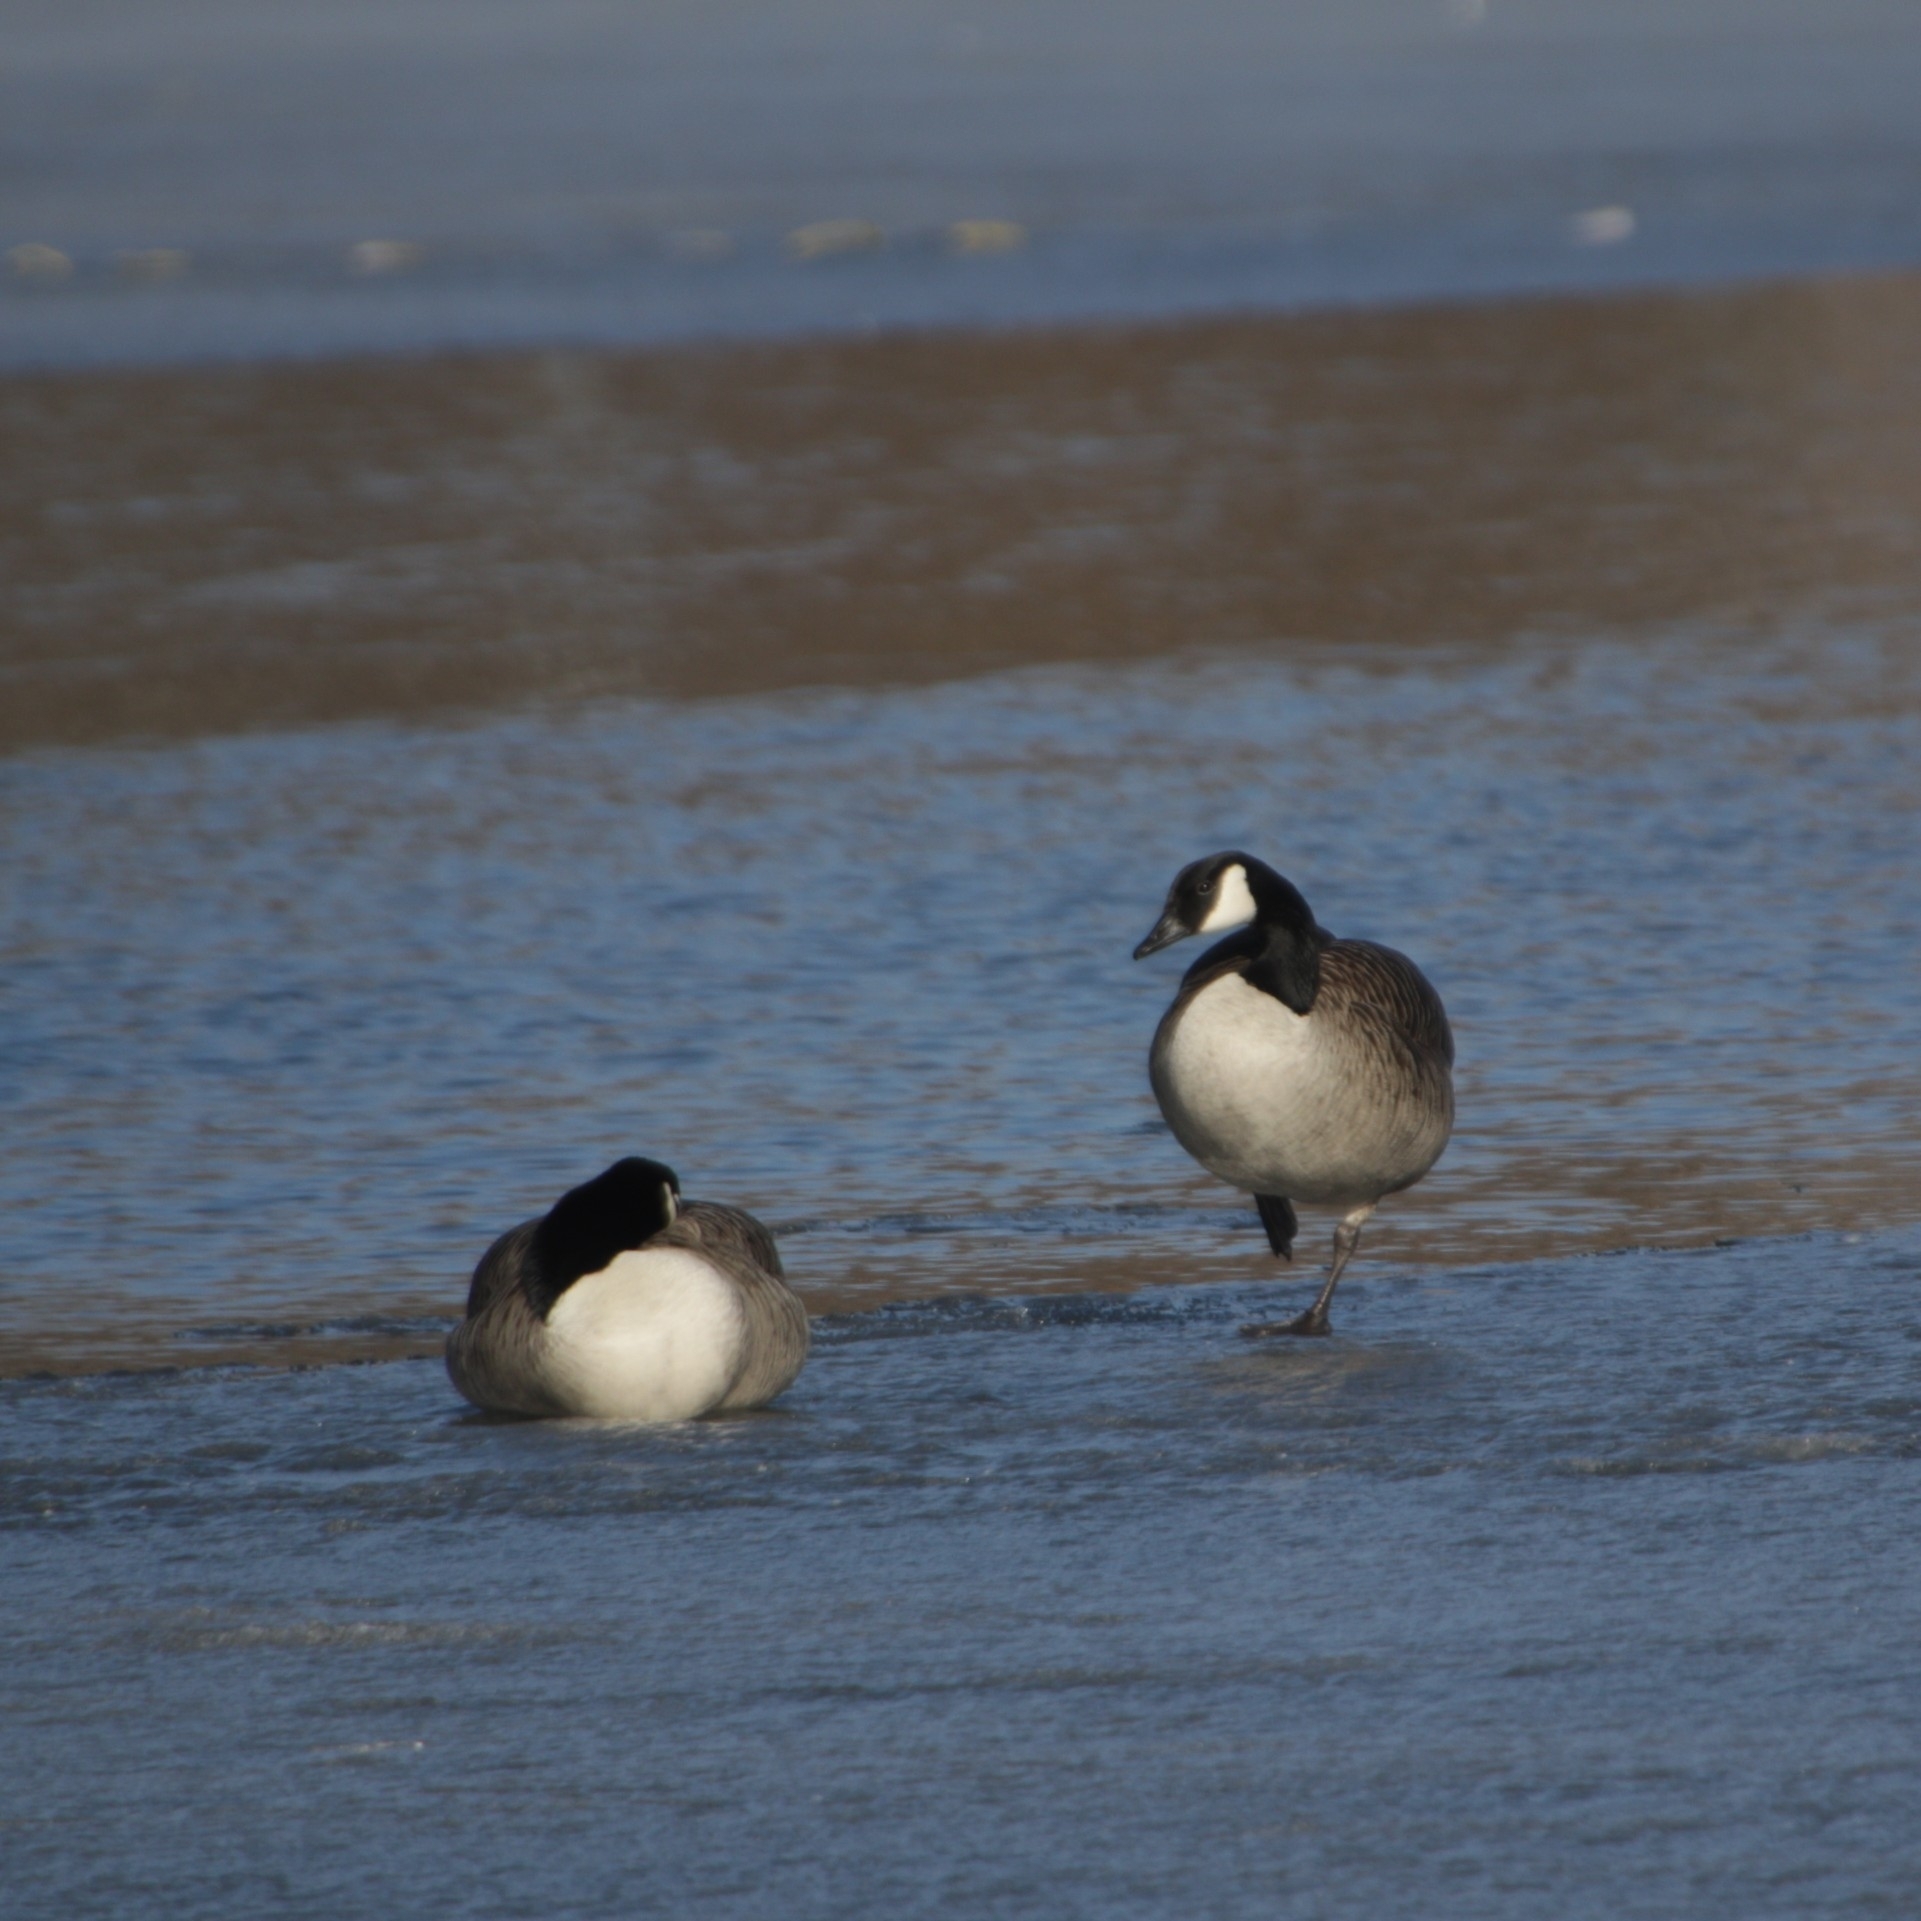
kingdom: Animalia
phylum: Chordata
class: Aves
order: Anseriformes
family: Anatidae
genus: Branta
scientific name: Branta canadensis
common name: Canada goose
